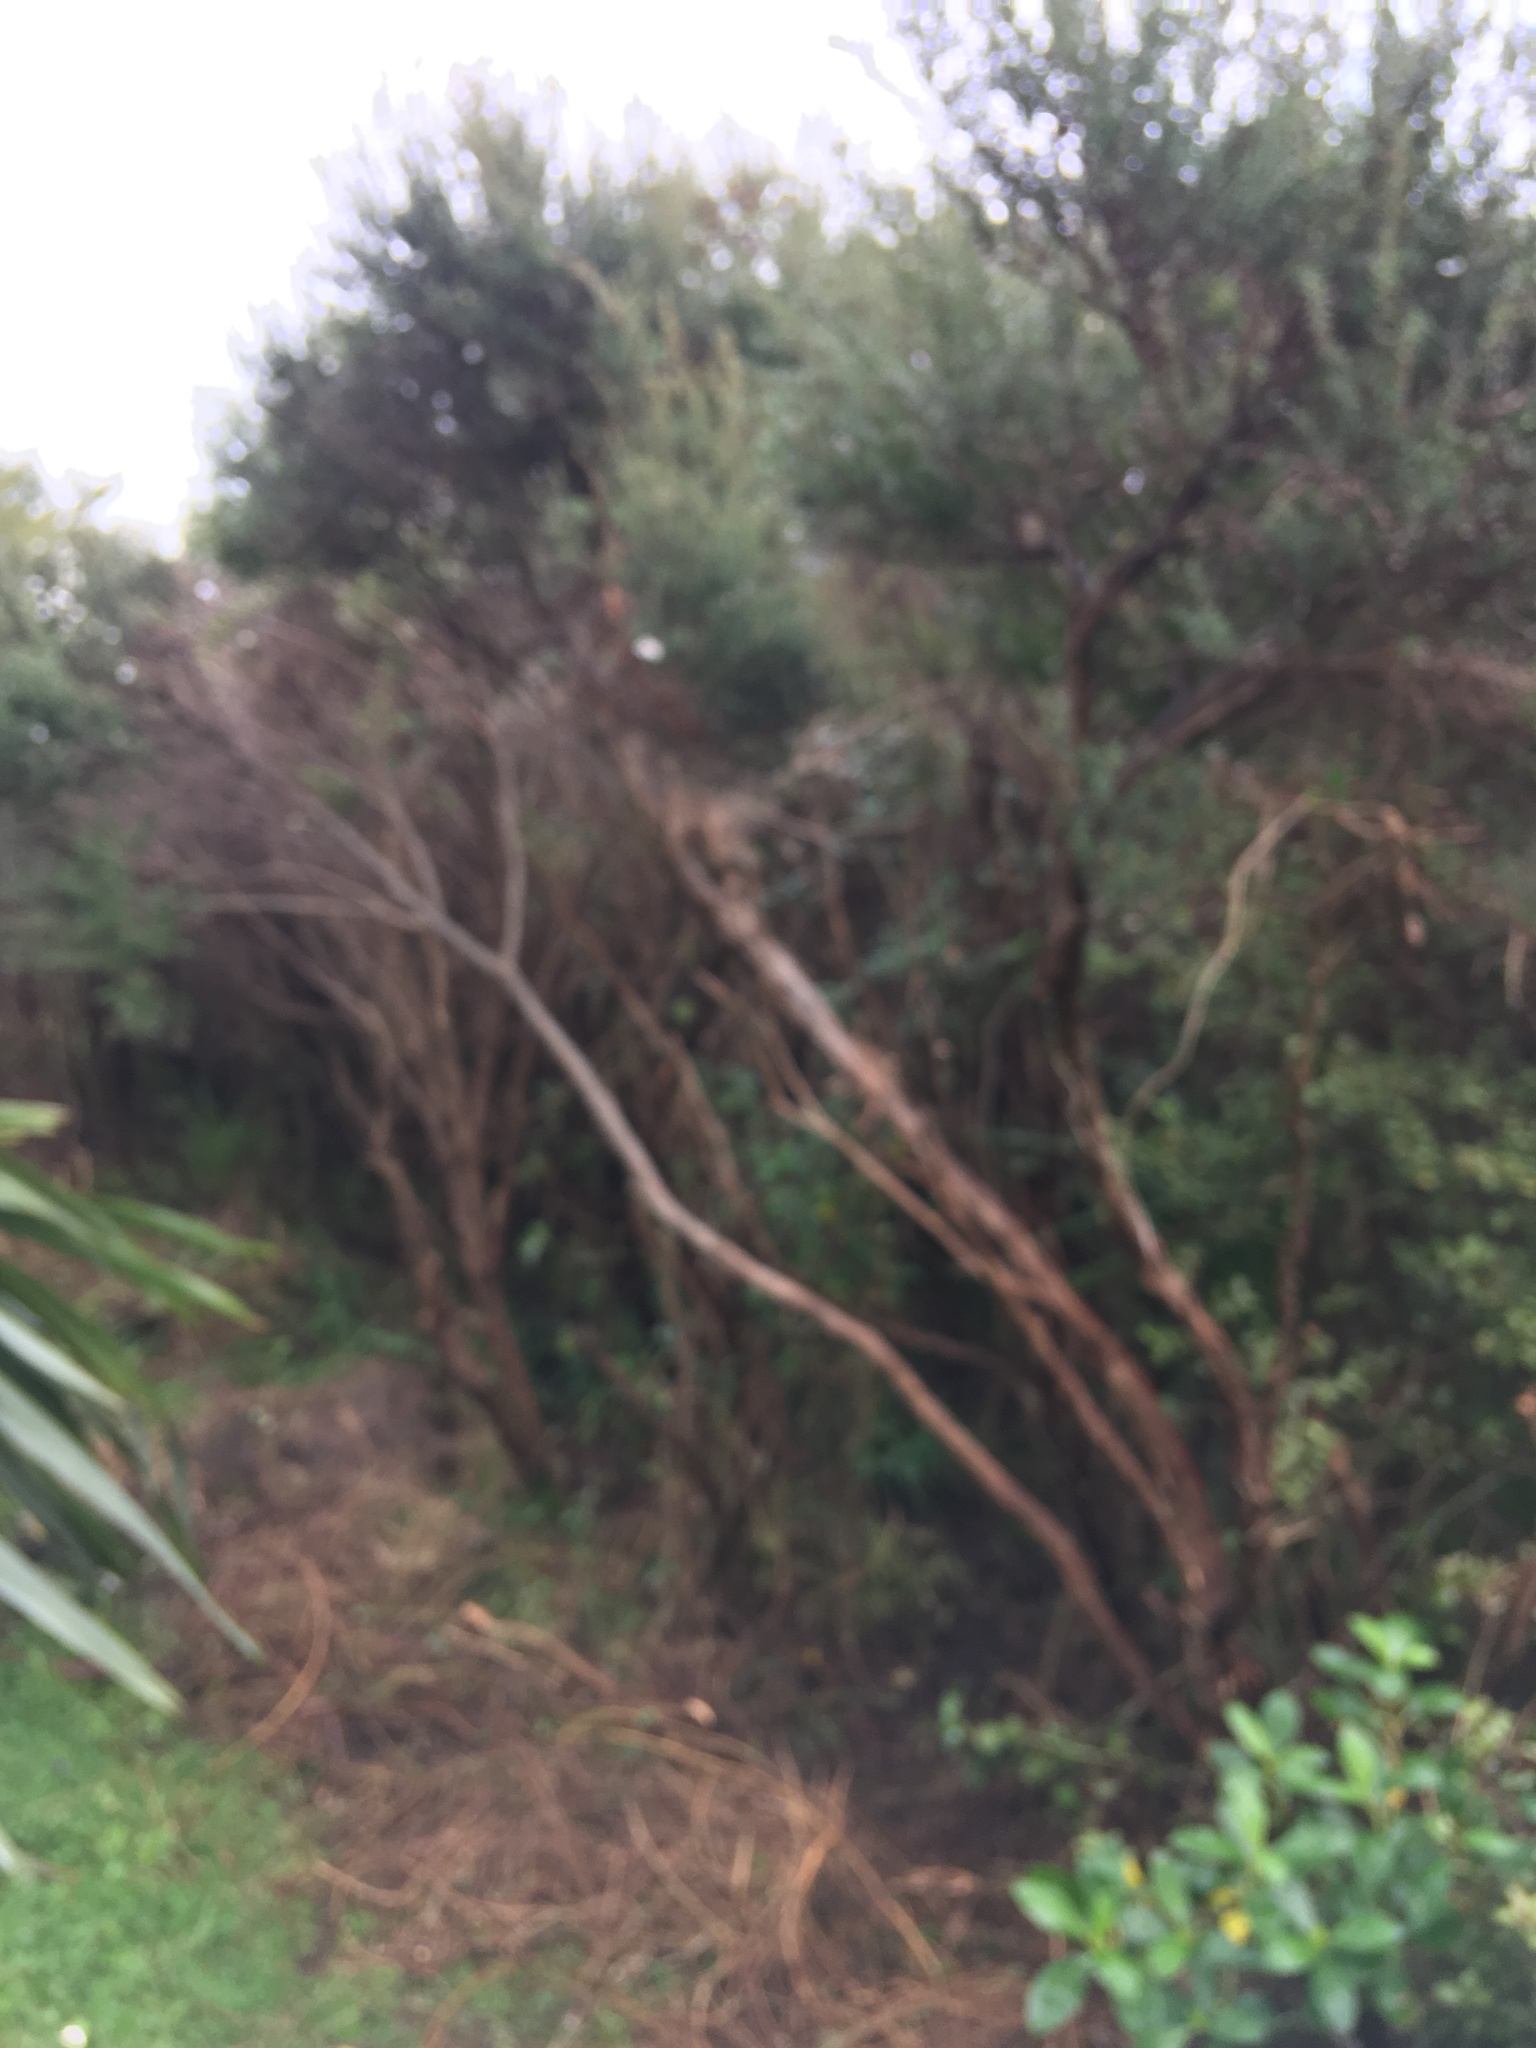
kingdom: Plantae
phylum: Tracheophyta
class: Magnoliopsida
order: Myrtales
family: Myrtaceae
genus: Leptospermum
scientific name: Leptospermum scoparium
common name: Broom tea-tree
